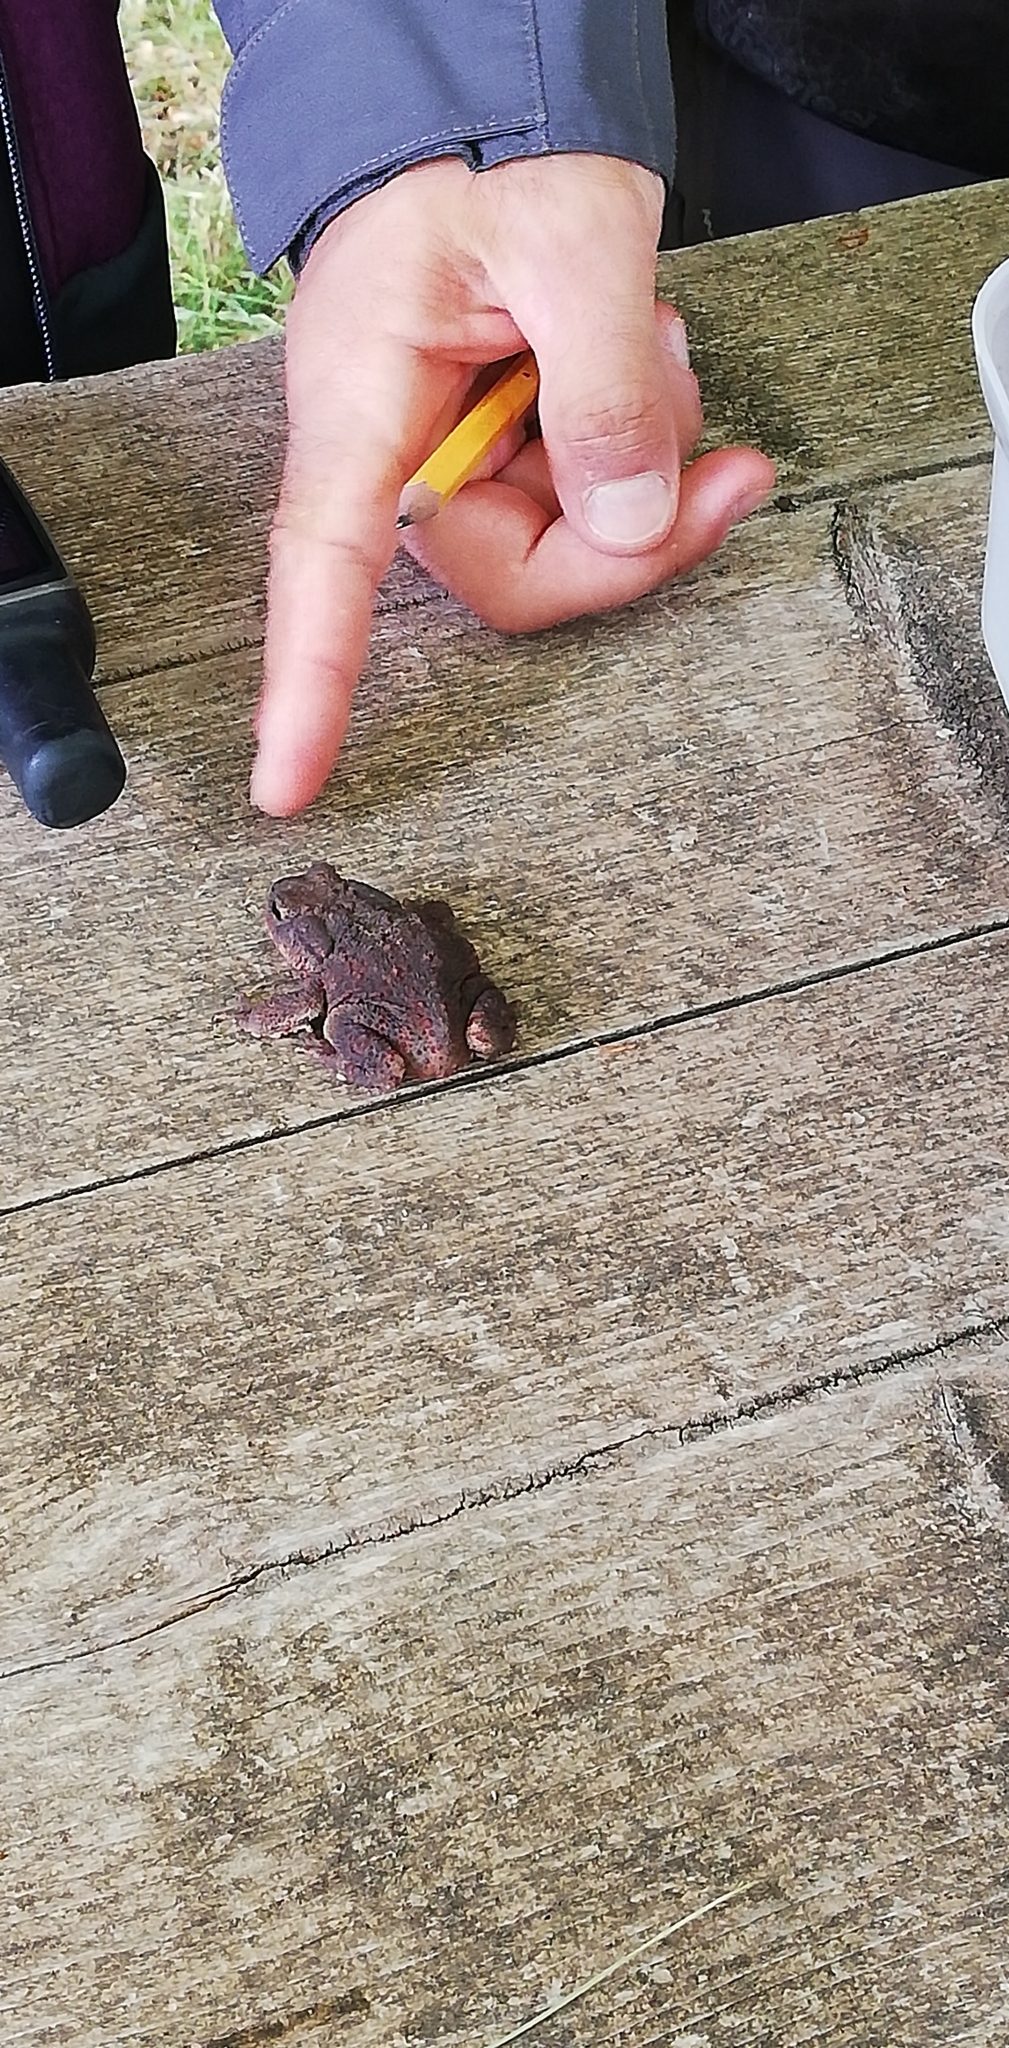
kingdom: Animalia
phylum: Chordata
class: Amphibia
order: Anura
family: Bufonidae
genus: Bufo
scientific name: Bufo bufo
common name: Common toad
